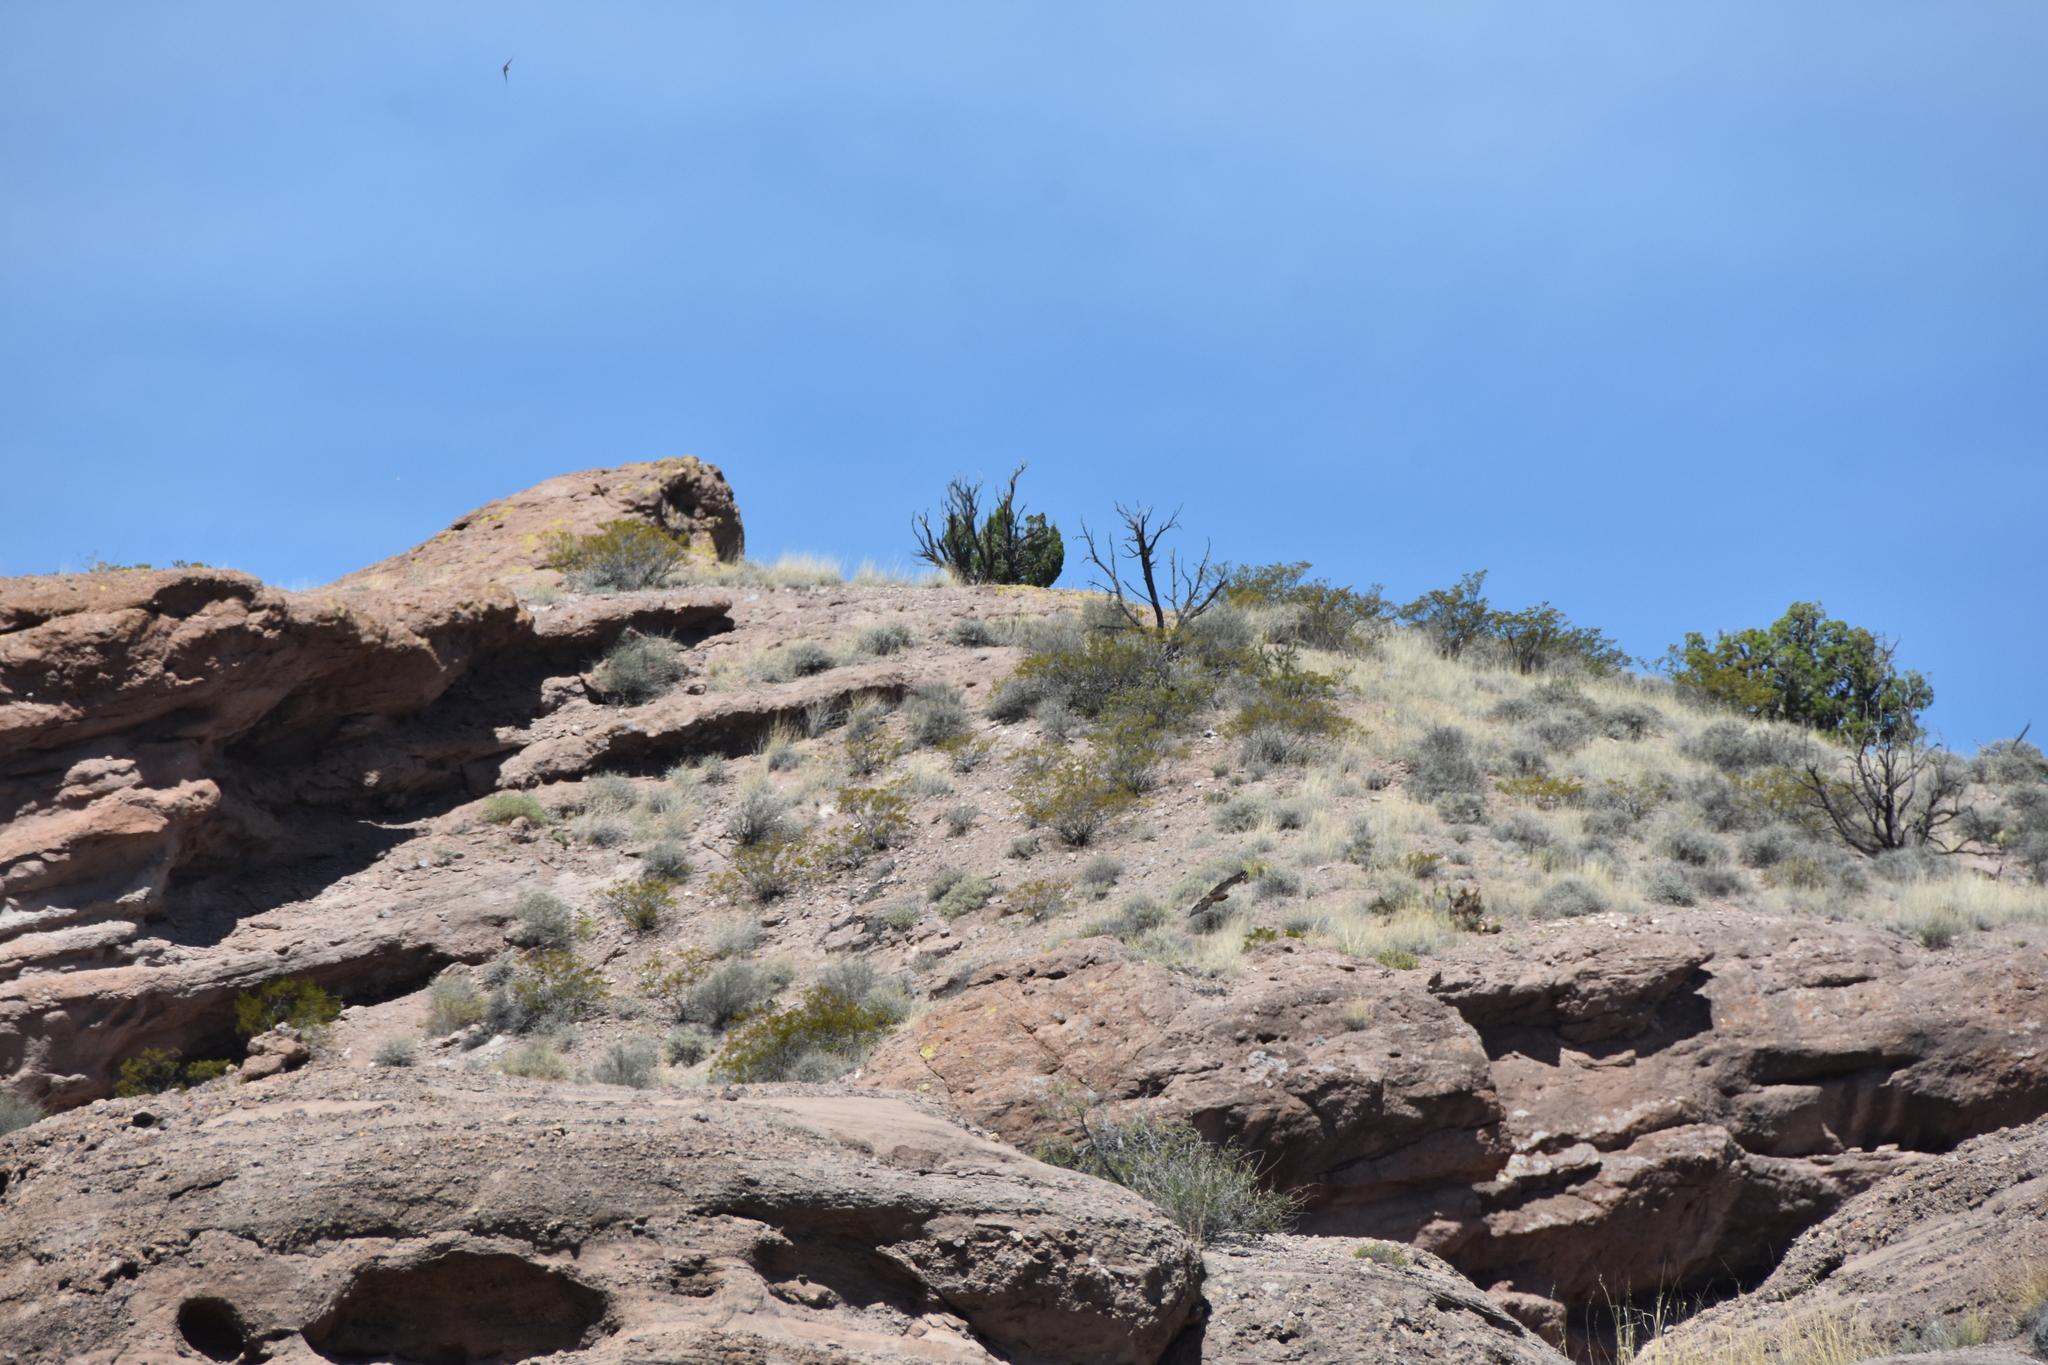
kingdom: Animalia
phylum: Chordata
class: Aves
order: Apodiformes
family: Apodidae
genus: Aeronautes
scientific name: Aeronautes saxatalis
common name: White-throated swift
